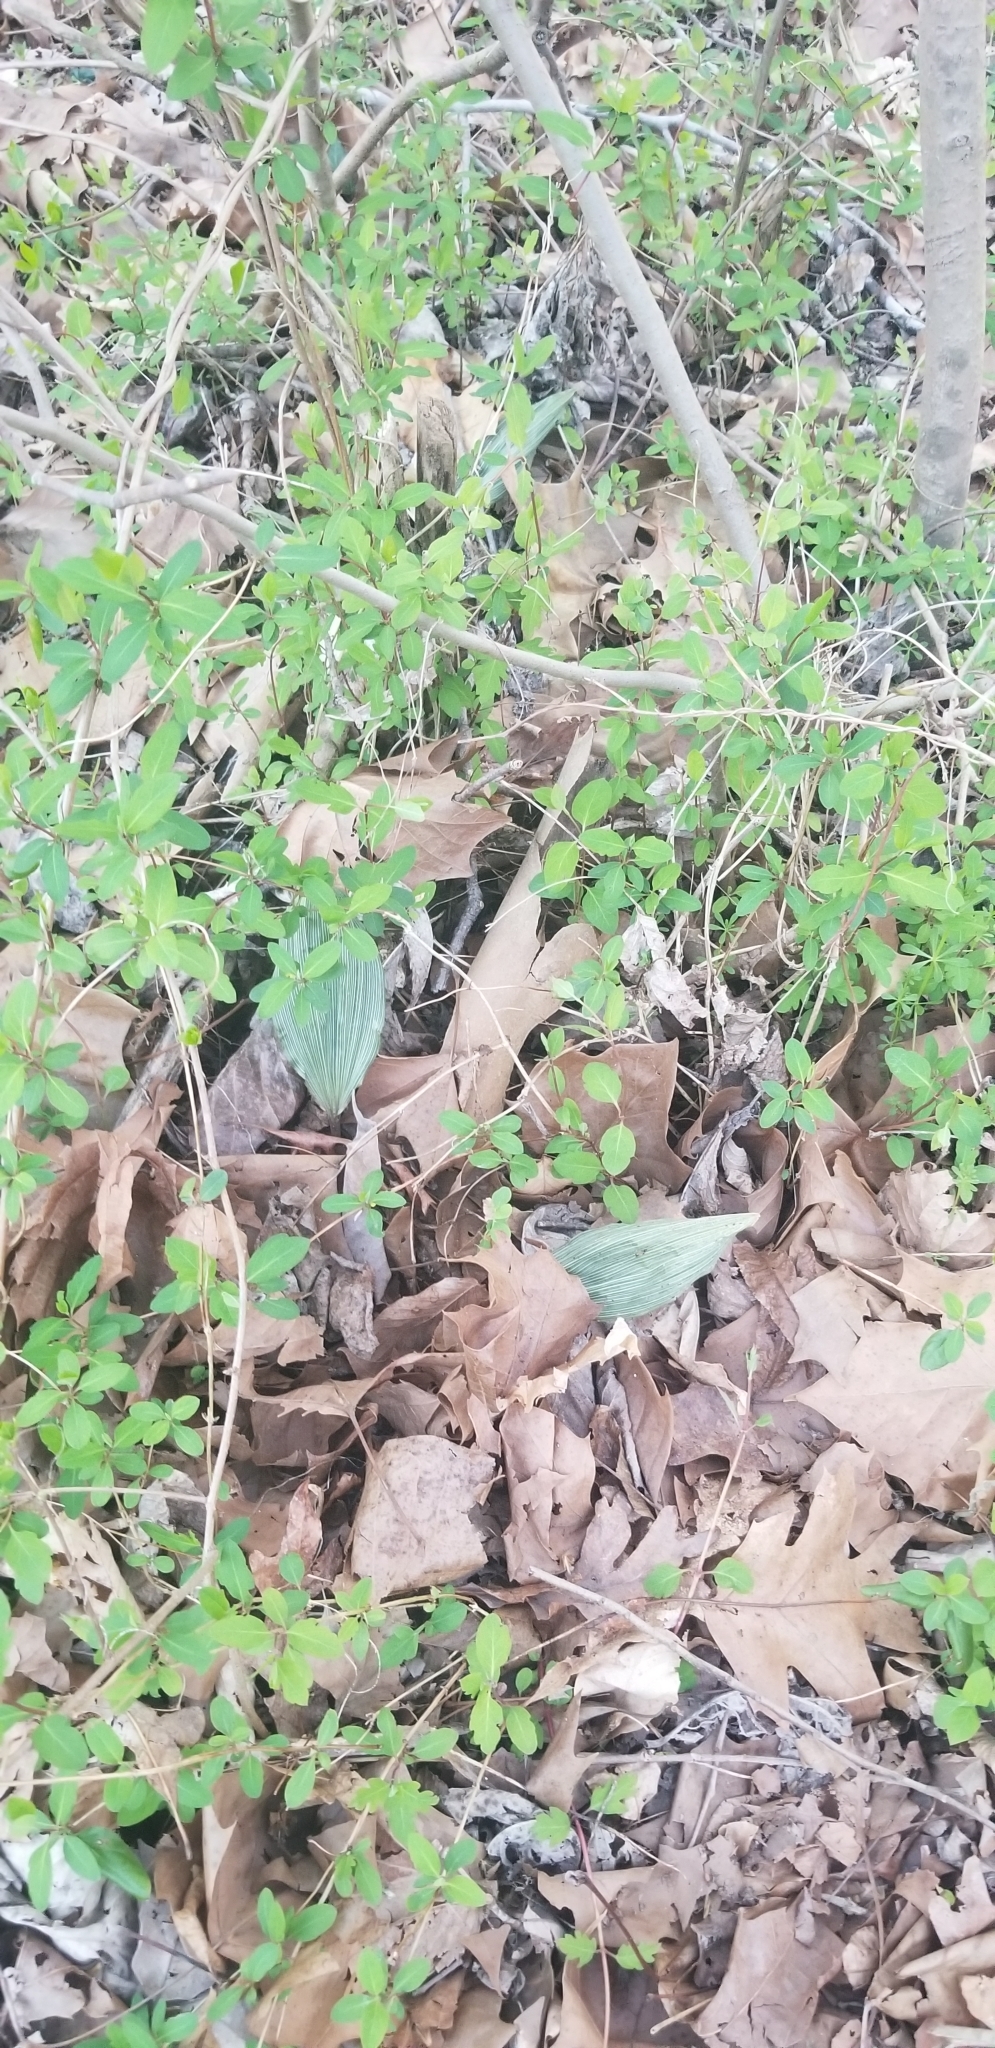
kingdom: Plantae
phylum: Tracheophyta
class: Liliopsida
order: Asparagales
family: Orchidaceae
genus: Aplectrum
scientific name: Aplectrum hyemale
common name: Adam-and-eve
